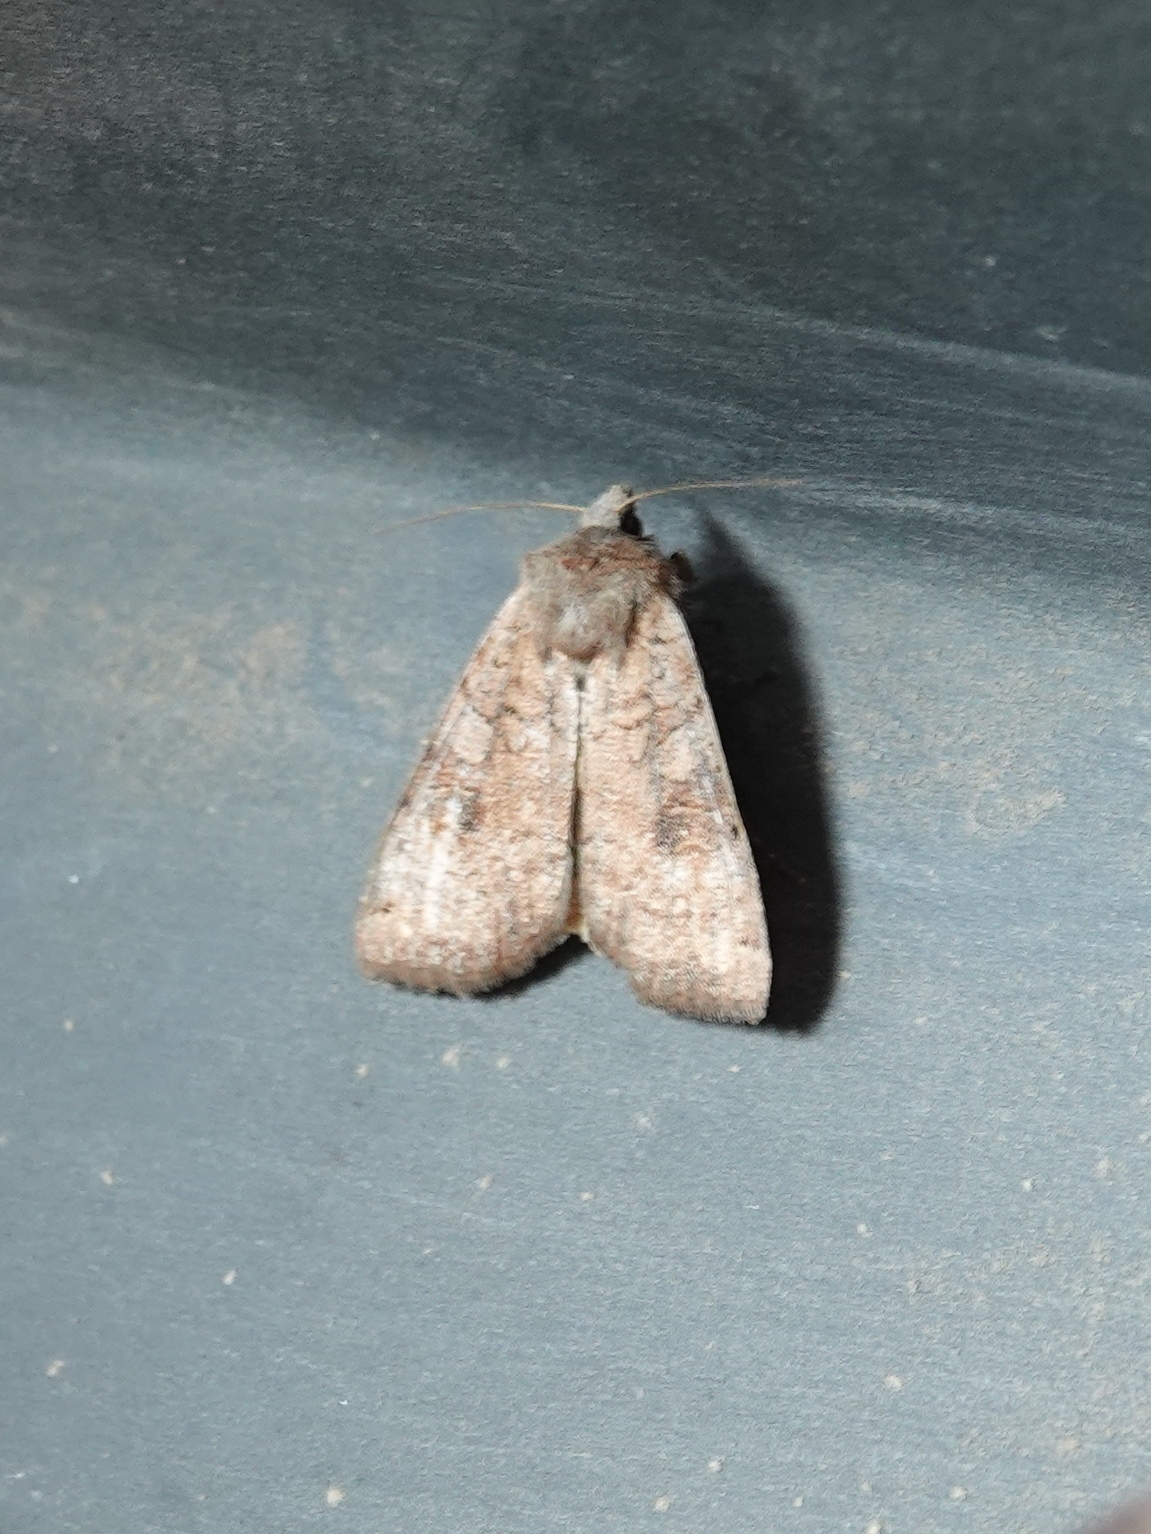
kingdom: Animalia
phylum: Arthropoda
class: Insecta
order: Lepidoptera
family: Noctuidae
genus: Xestia
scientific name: Xestia baja
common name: Dotted clay
